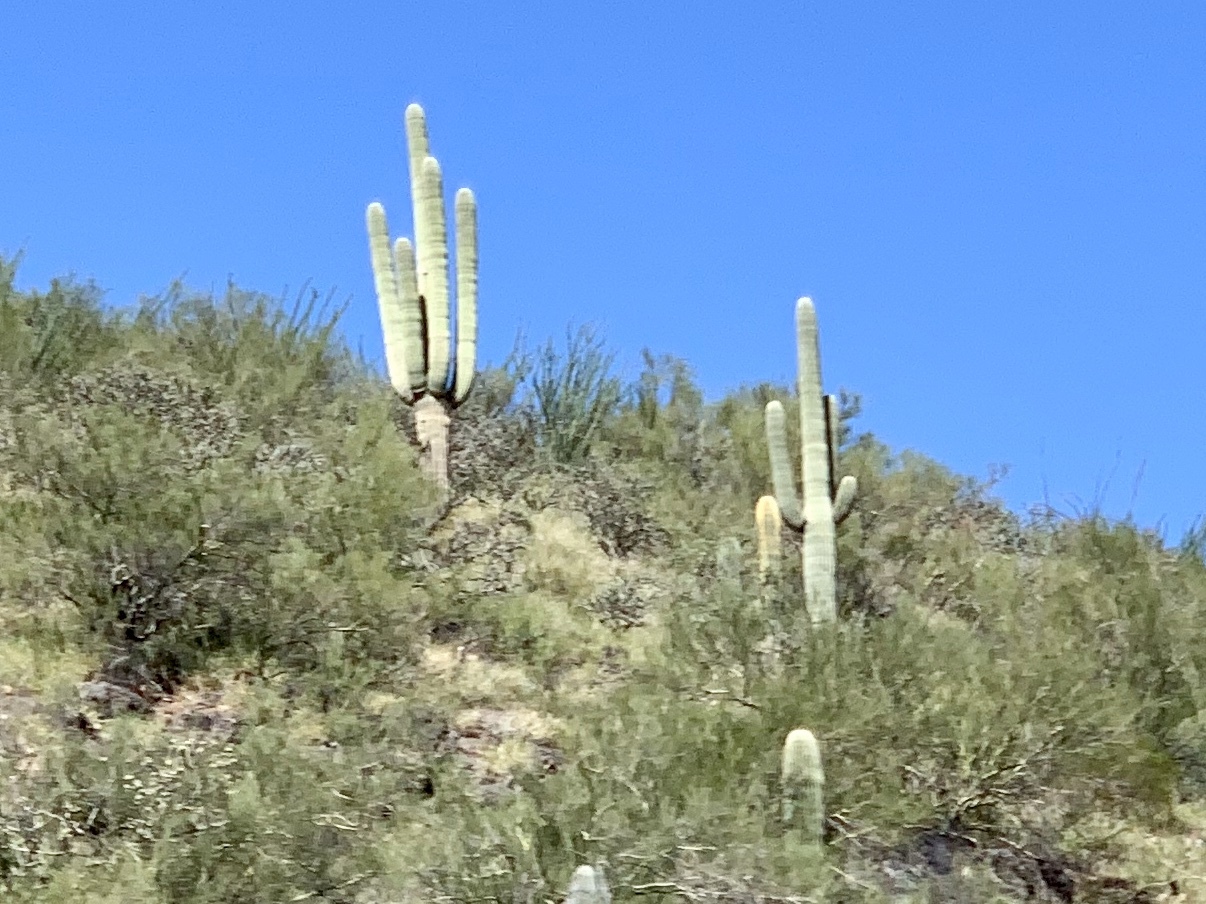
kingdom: Plantae
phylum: Tracheophyta
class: Magnoliopsida
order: Caryophyllales
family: Cactaceae
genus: Carnegiea
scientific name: Carnegiea gigantea
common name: Saguaro
